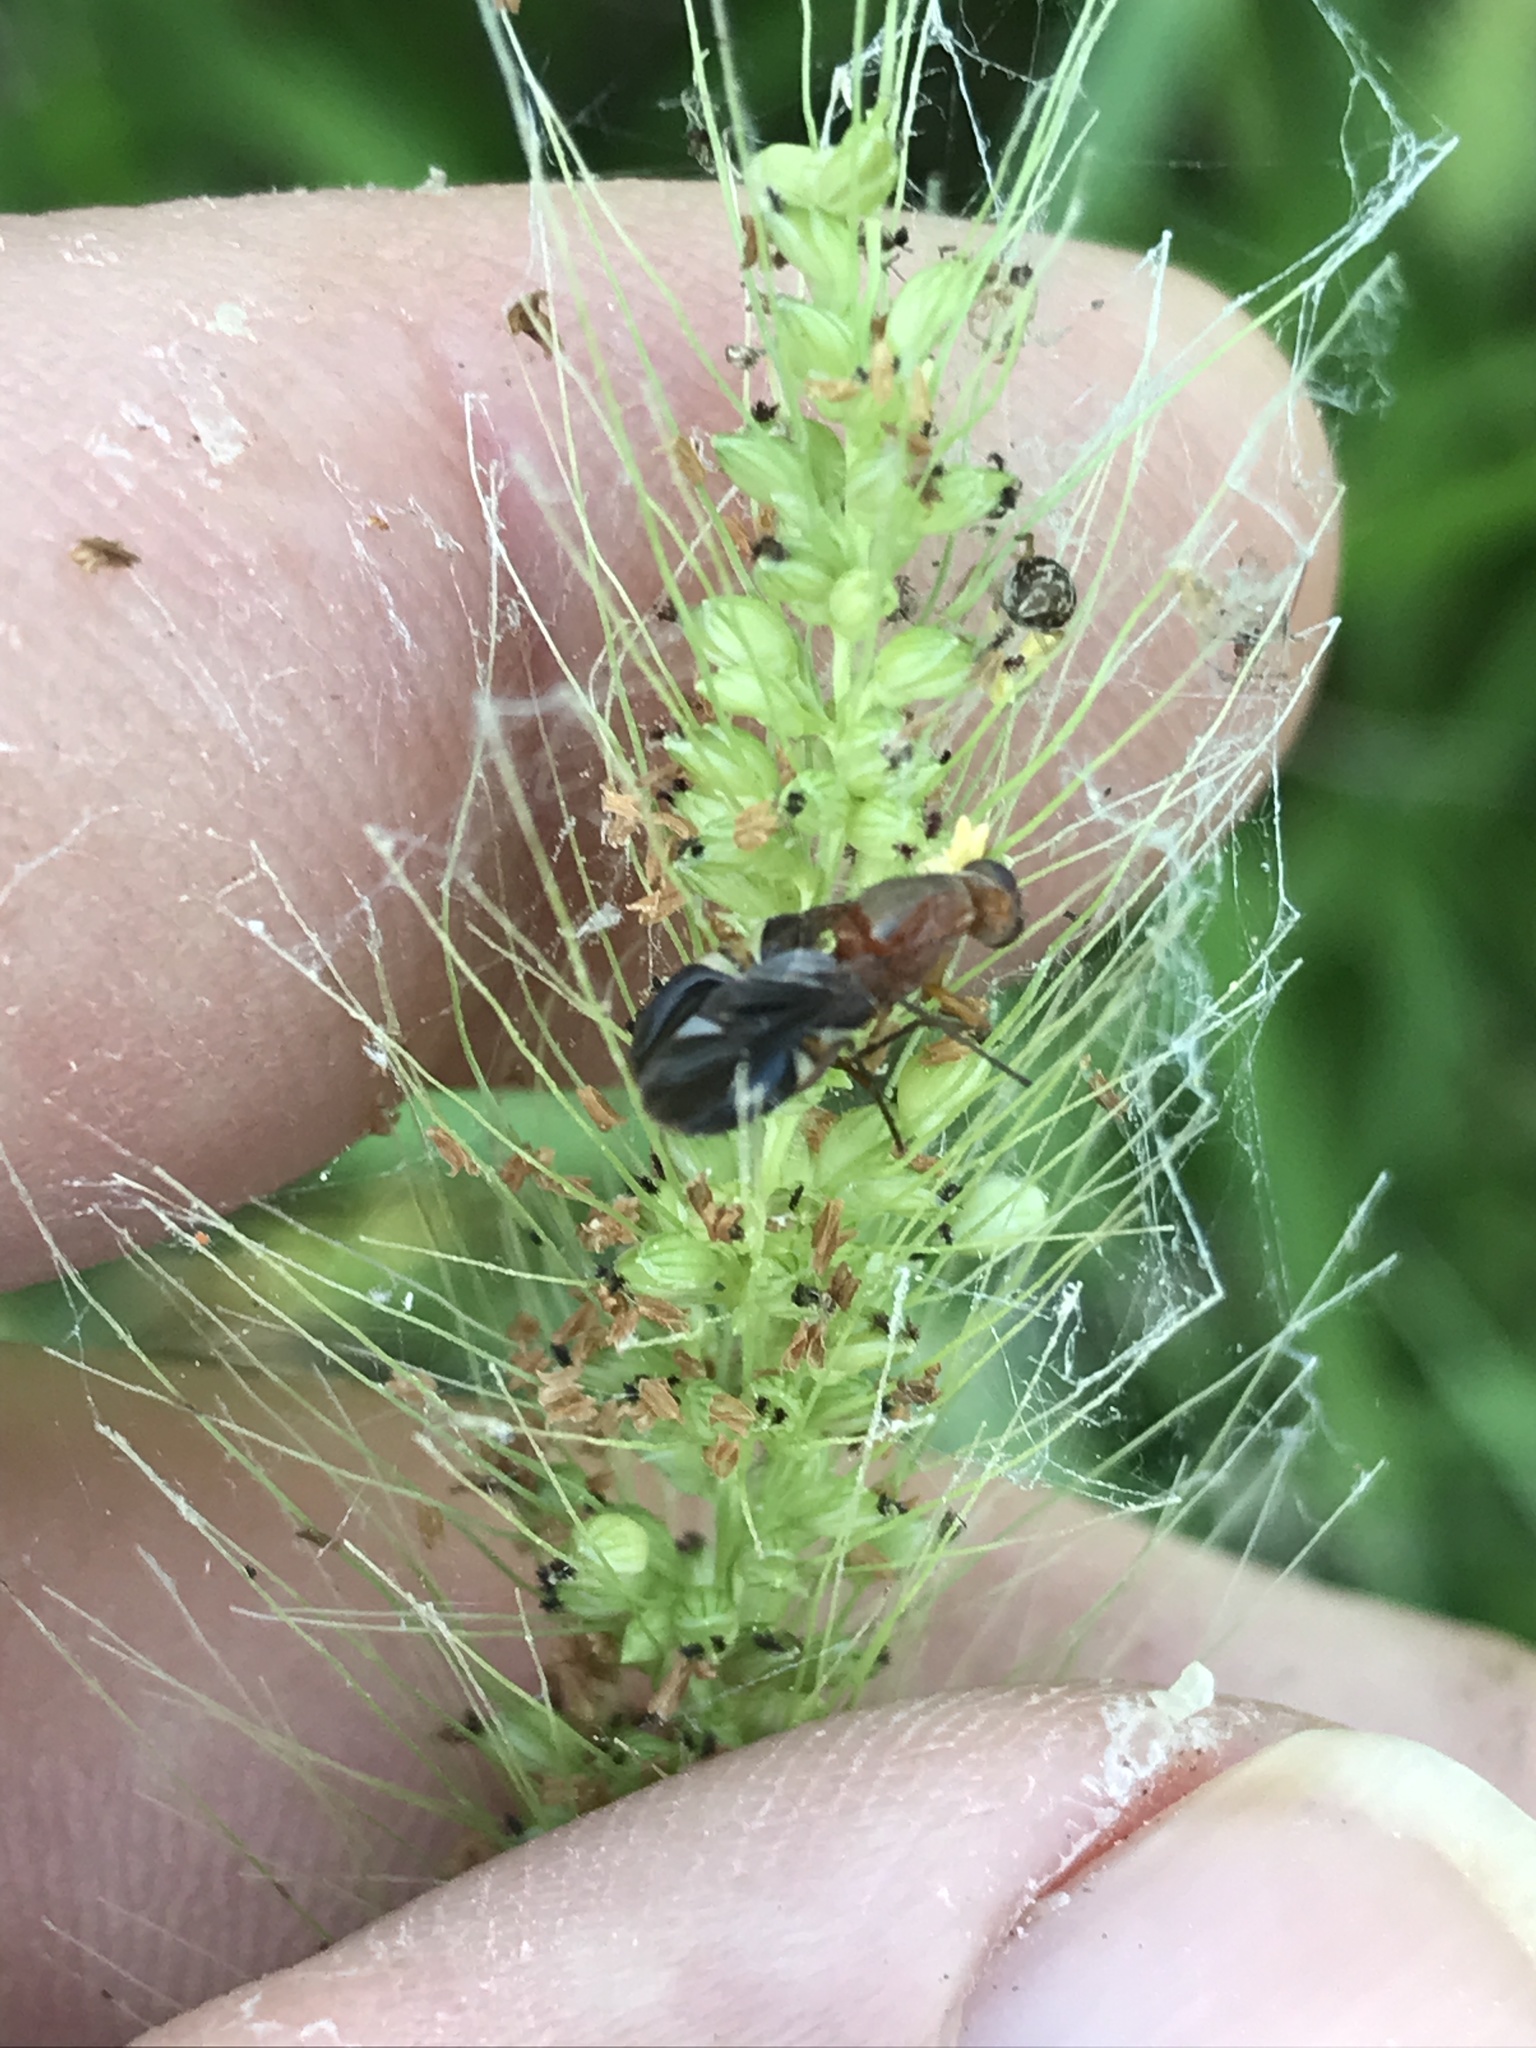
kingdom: Animalia
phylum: Arthropoda
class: Insecta
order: Diptera
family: Ulidiidae
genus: Delphinia
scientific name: Delphinia picta
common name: Common picture-winged fly
